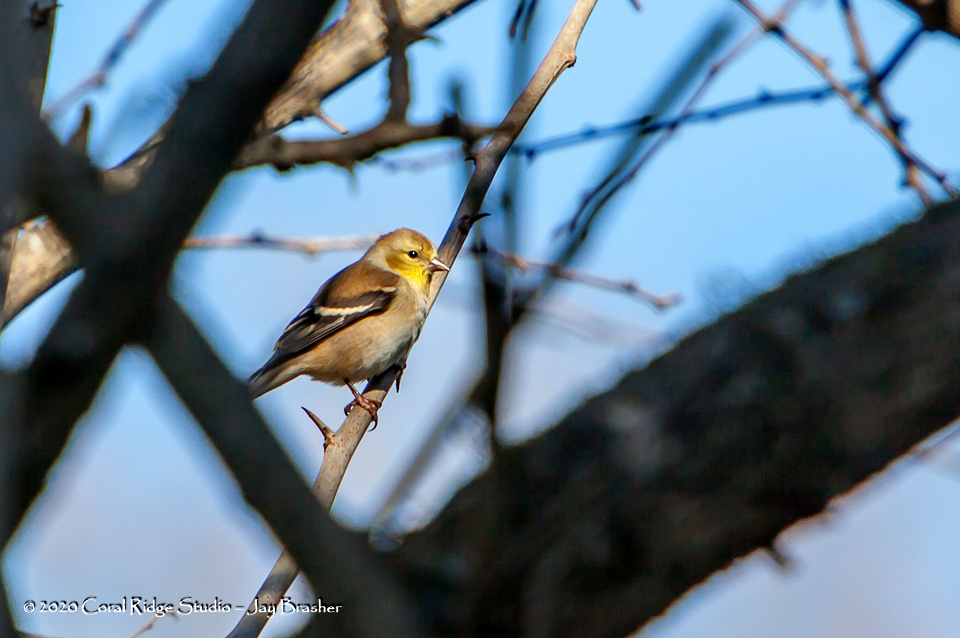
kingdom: Animalia
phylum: Chordata
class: Aves
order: Passeriformes
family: Fringillidae
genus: Spinus
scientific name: Spinus tristis
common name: American goldfinch
